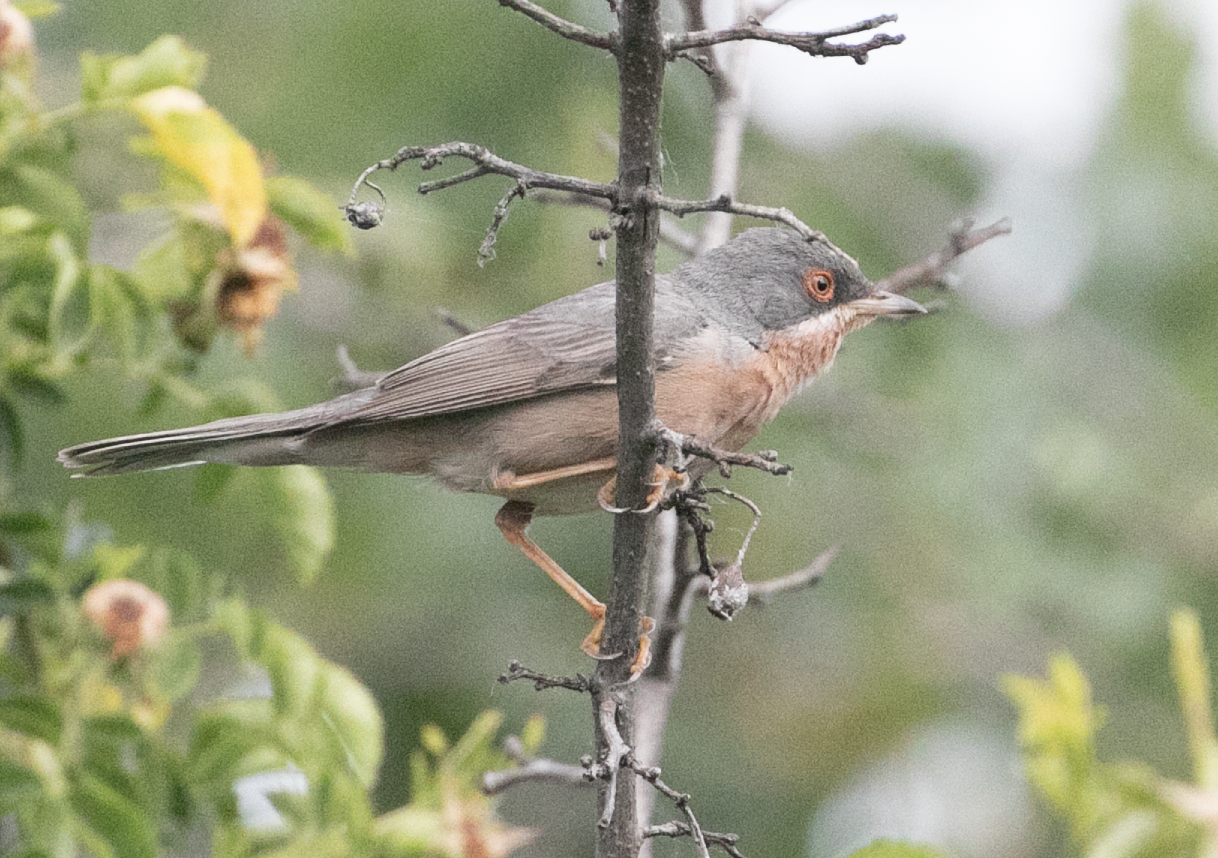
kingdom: Animalia
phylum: Chordata
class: Aves
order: Passeriformes
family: Sylviidae
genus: Curruca
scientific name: Curruca subalpina
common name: Moltoni's warbler
